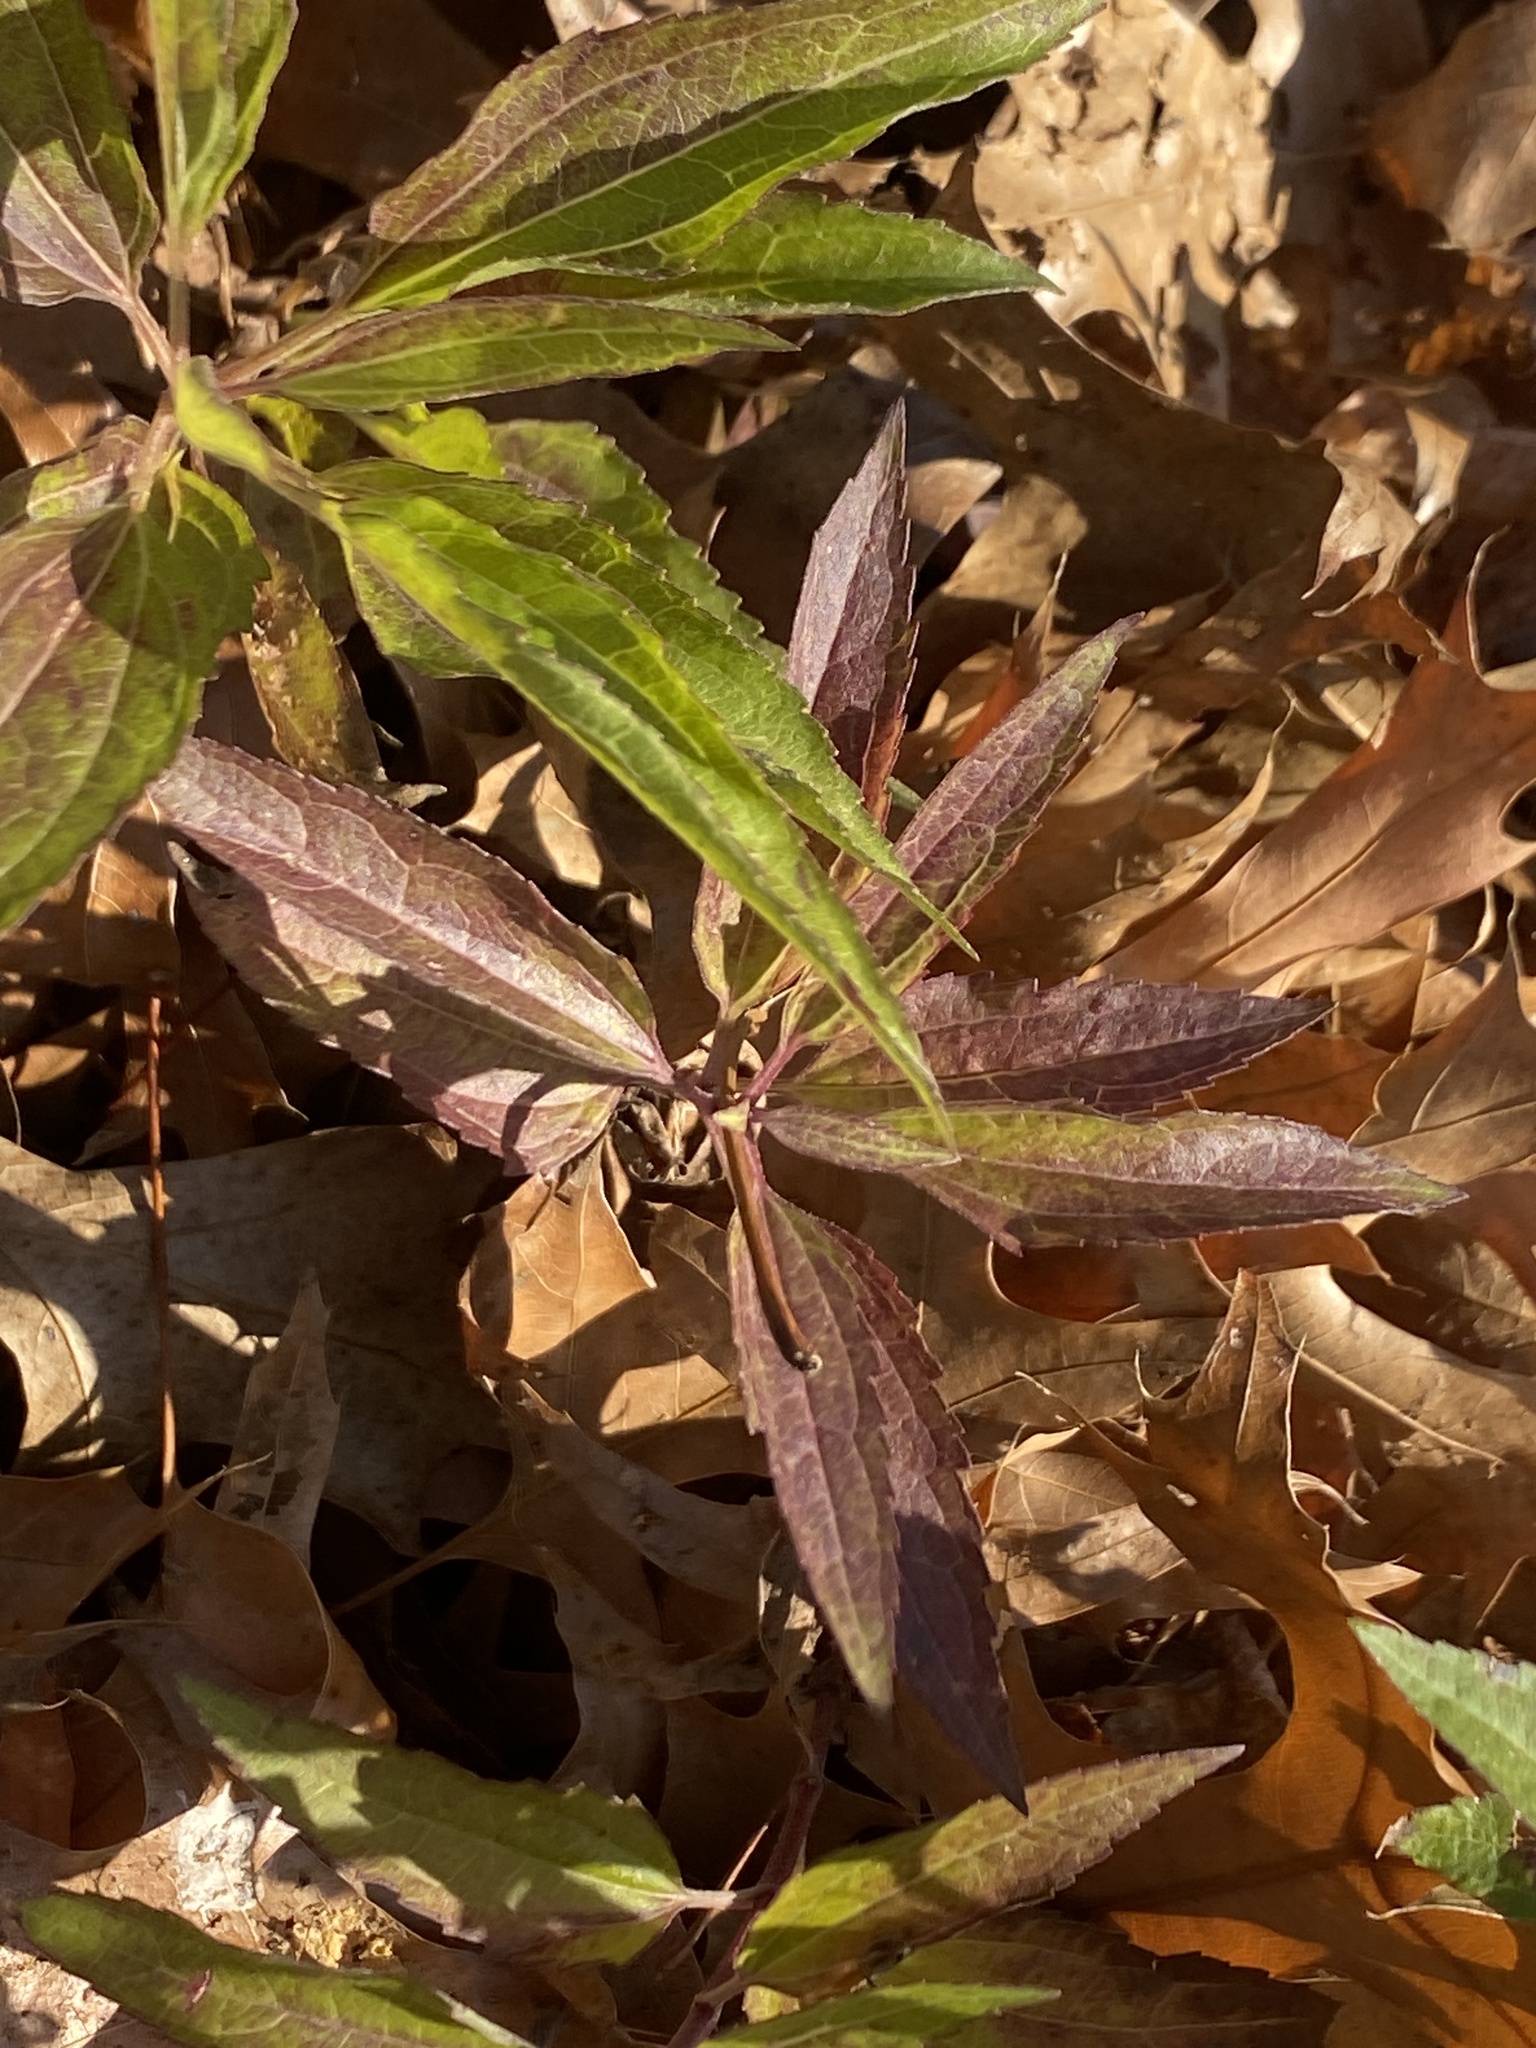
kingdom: Plantae
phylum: Tracheophyta
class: Magnoliopsida
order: Asterales
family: Asteraceae
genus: Eupatorium
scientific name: Eupatorium serotinum
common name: Late boneset
